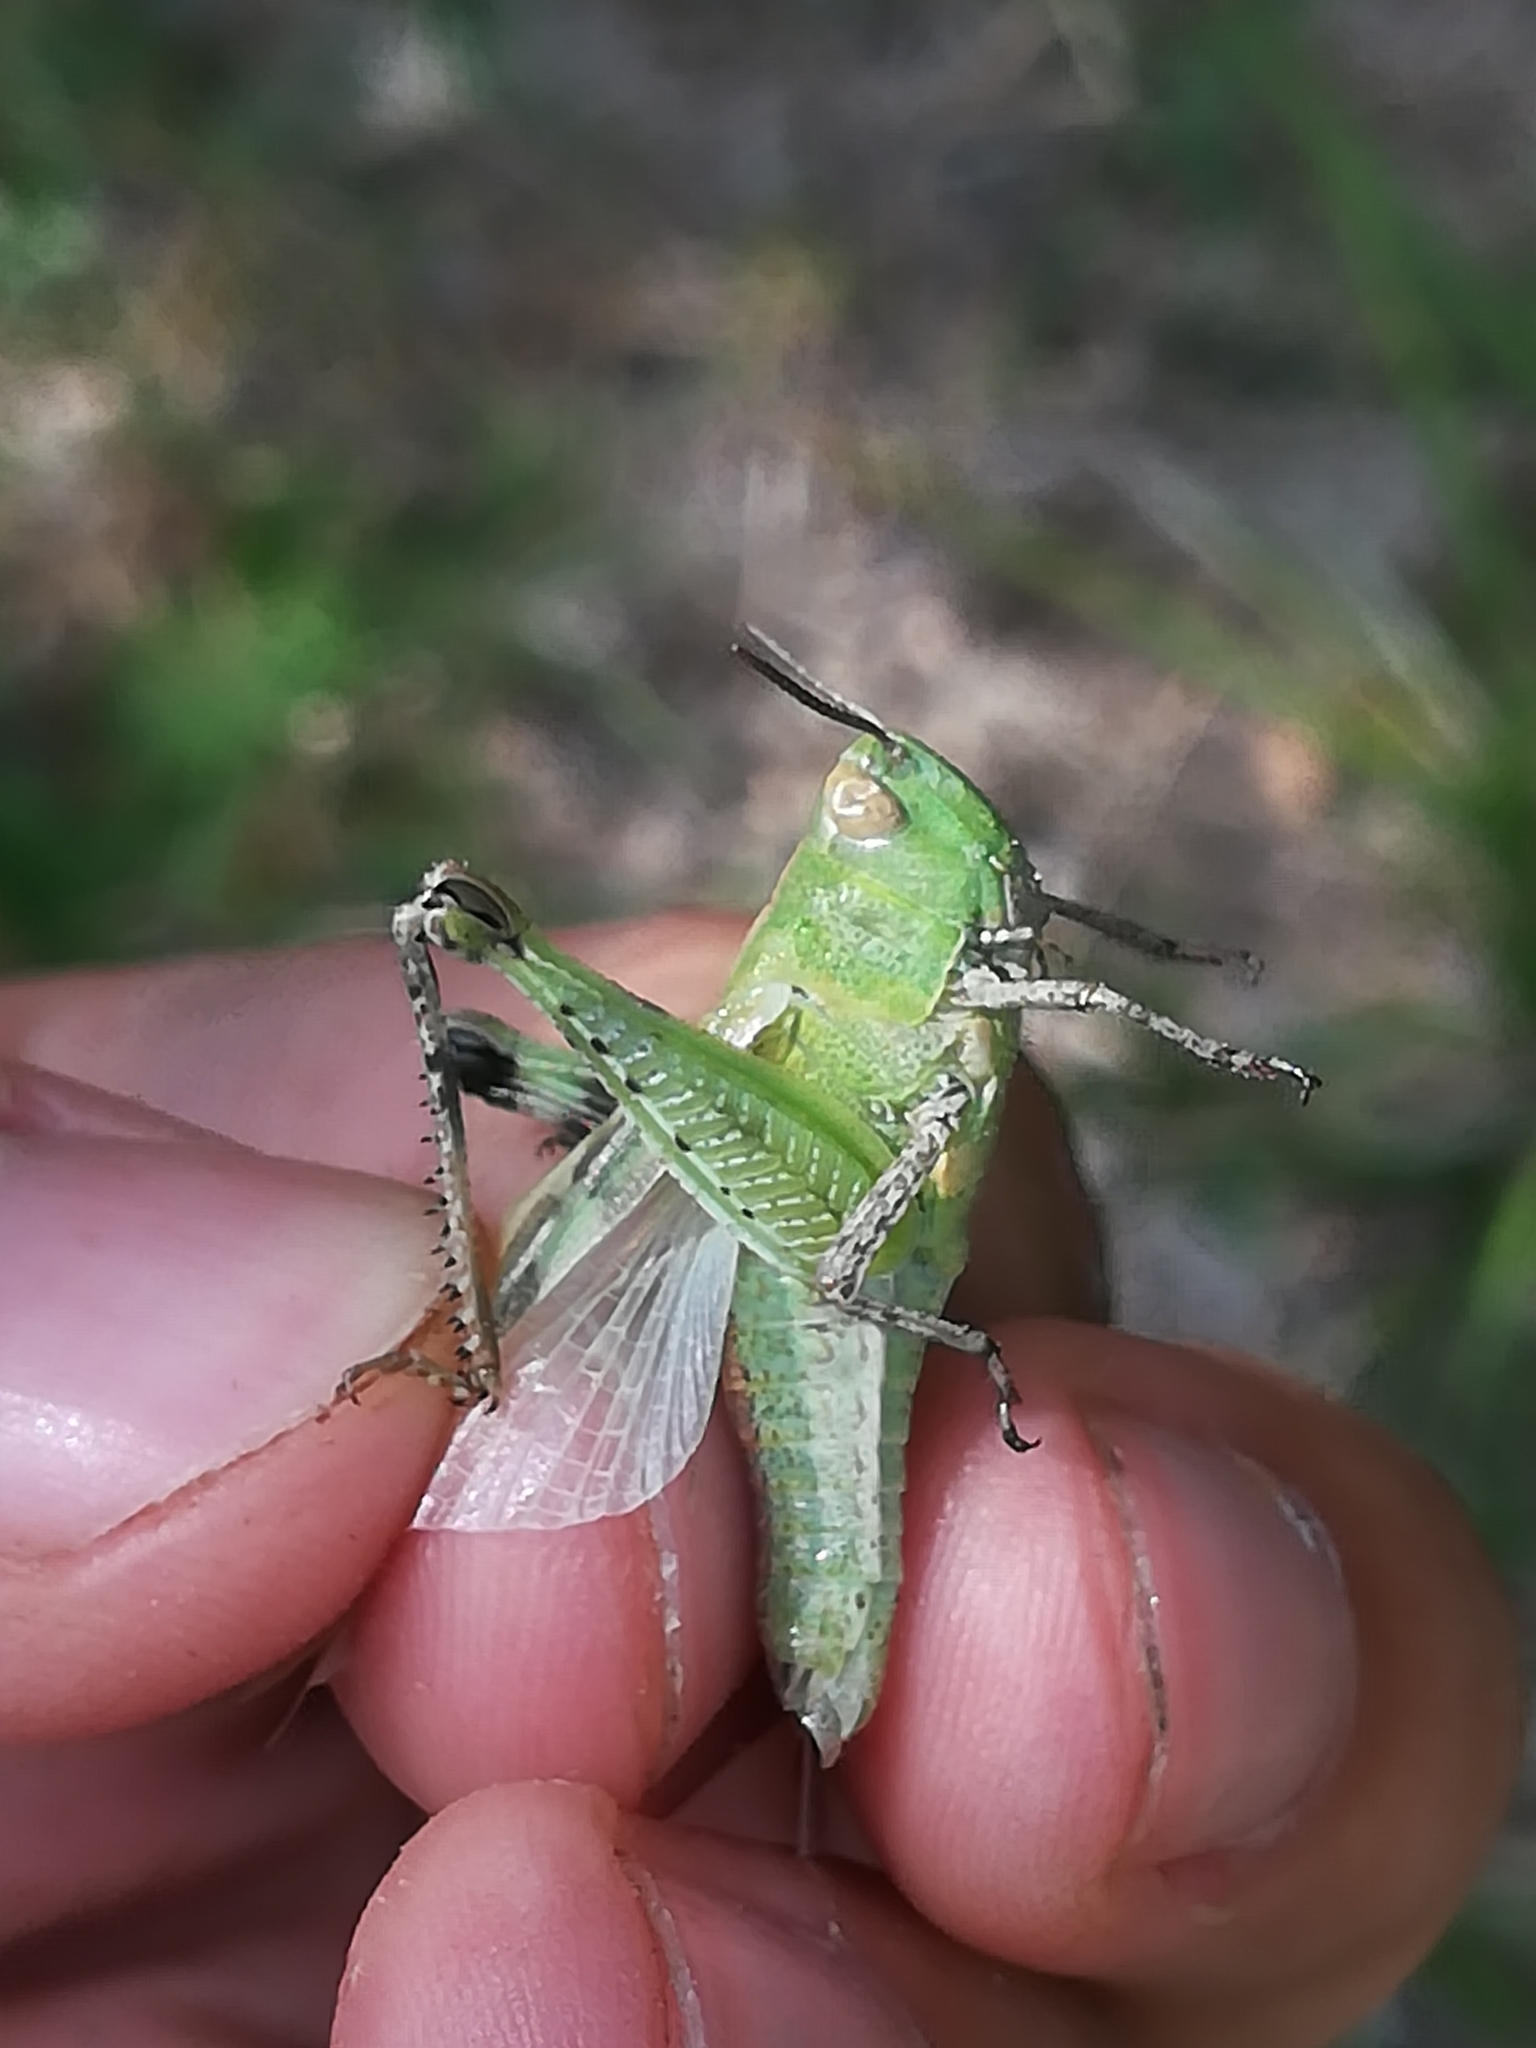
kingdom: Animalia
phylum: Arthropoda
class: Insecta
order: Orthoptera
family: Acrididae
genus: Aiolopus
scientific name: Aiolopus strepens
